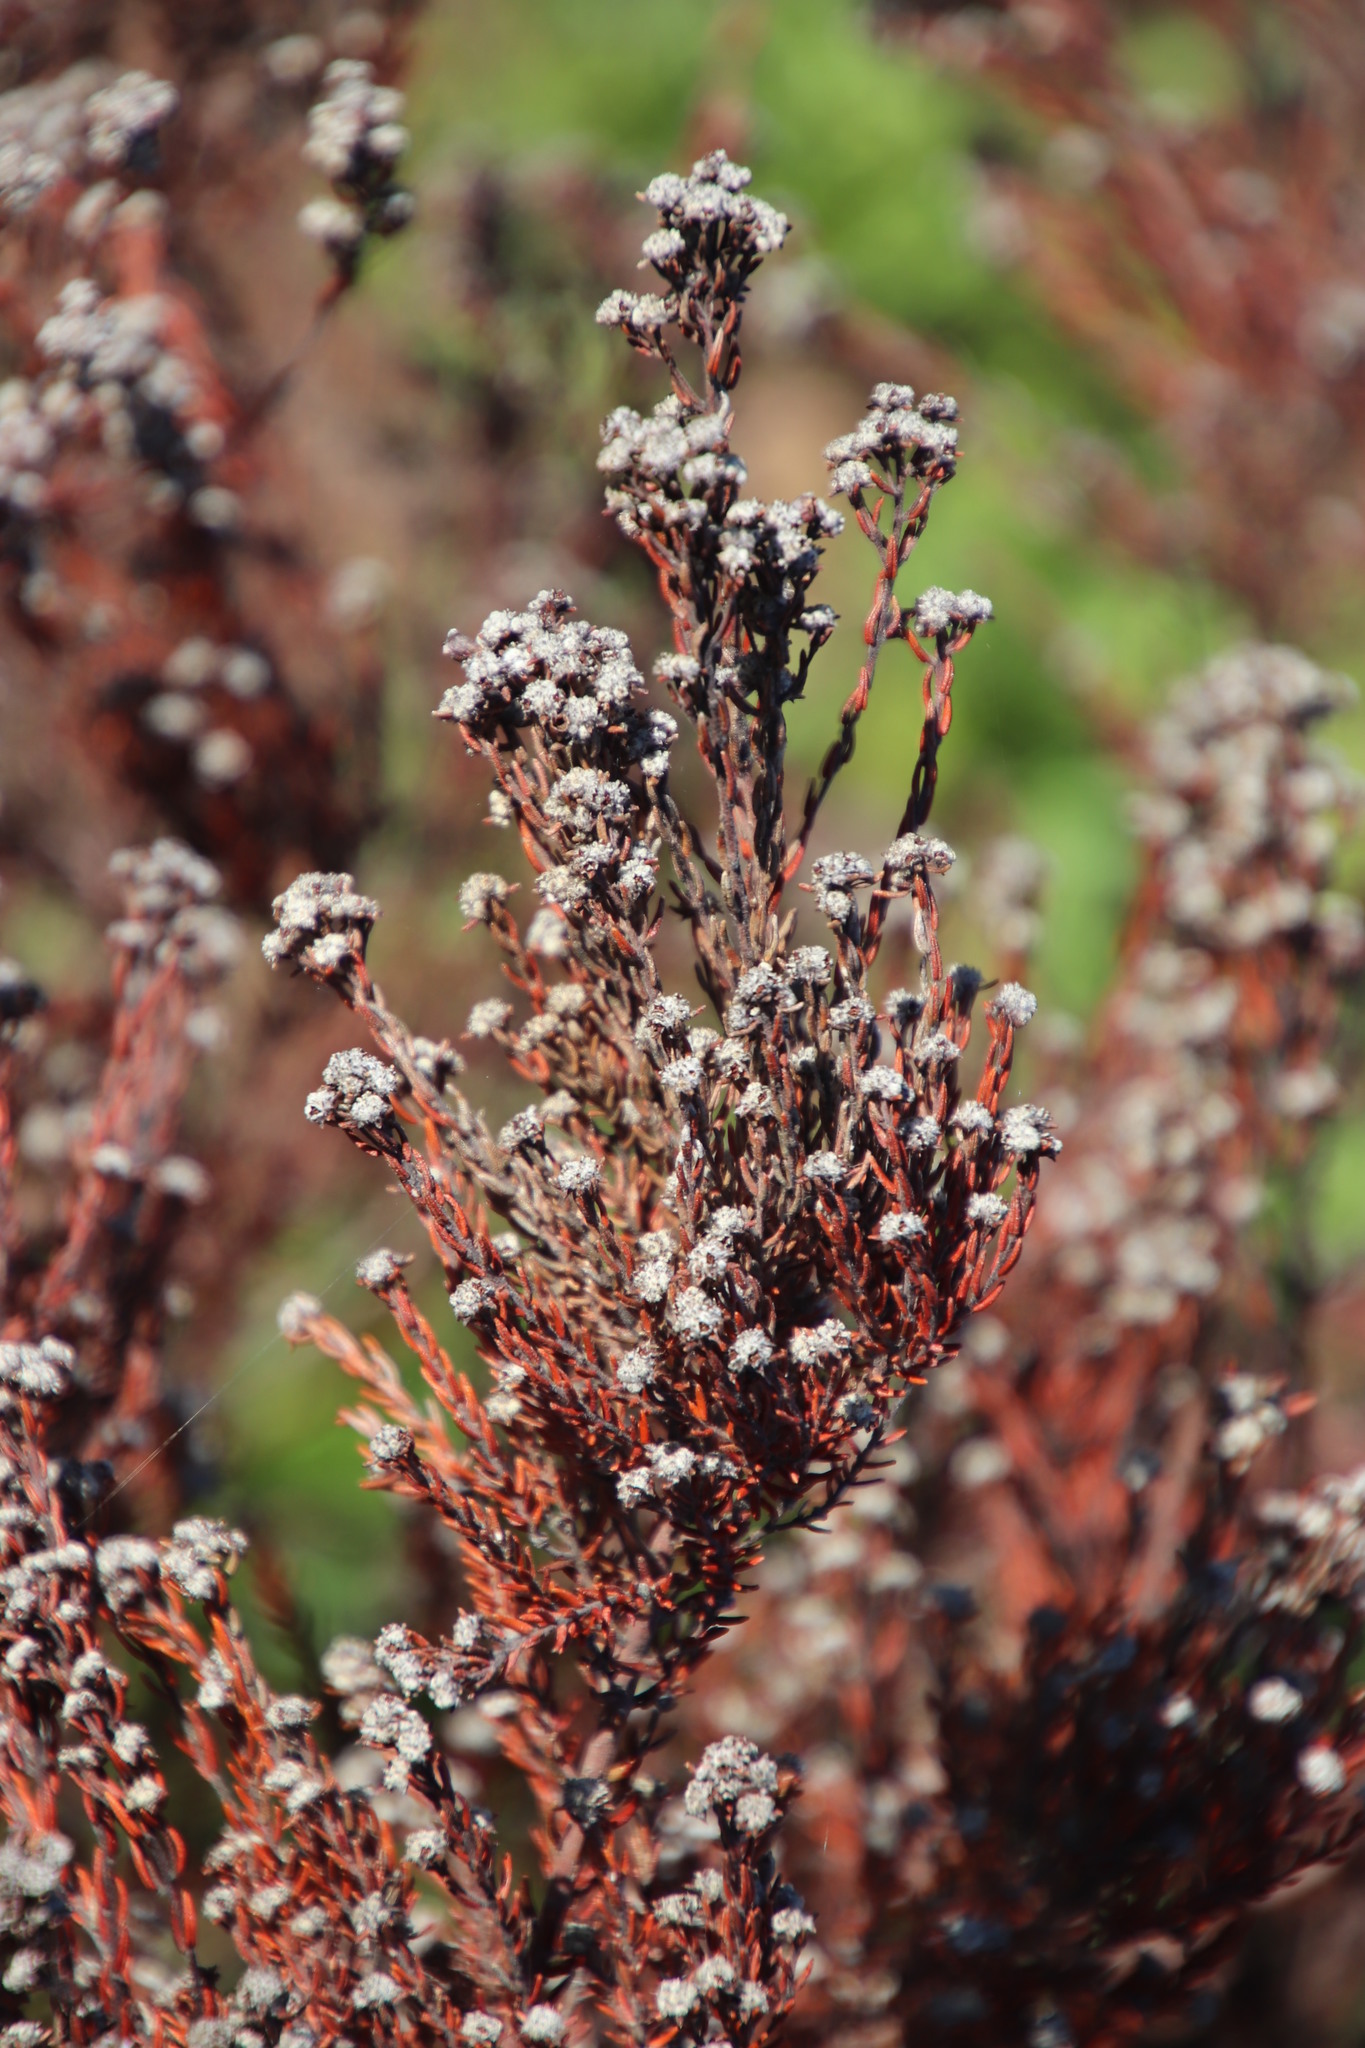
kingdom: Plantae
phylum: Tracheophyta
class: Magnoliopsida
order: Rosales
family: Rhamnaceae
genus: Phylica
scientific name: Phylica ericoides
